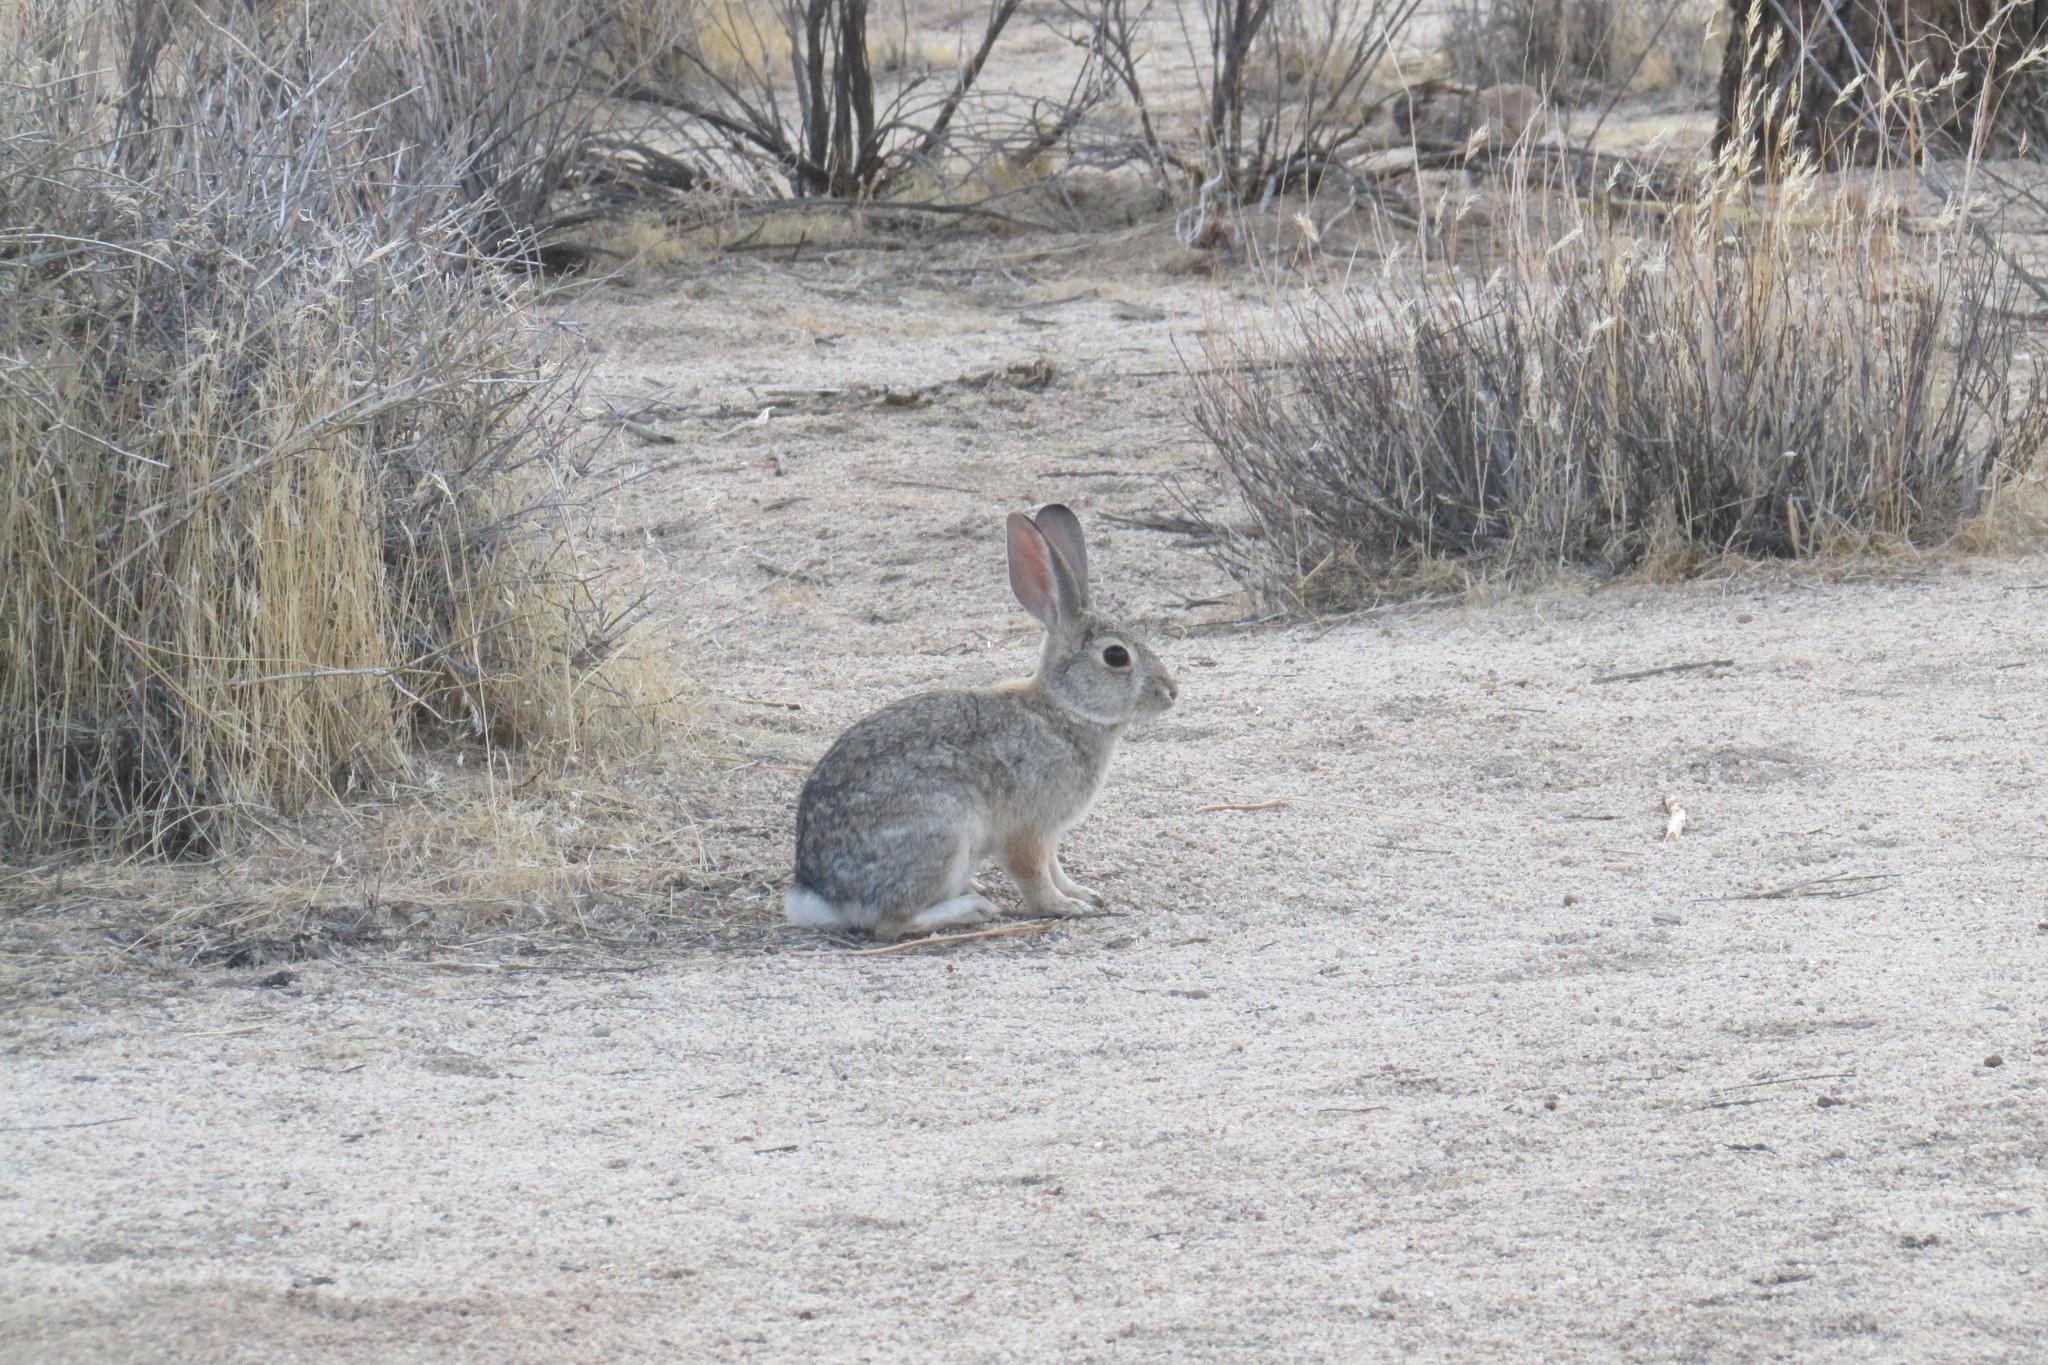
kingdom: Animalia
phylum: Chordata
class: Mammalia
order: Lagomorpha
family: Leporidae
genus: Sylvilagus
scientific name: Sylvilagus audubonii
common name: Desert cottontail
